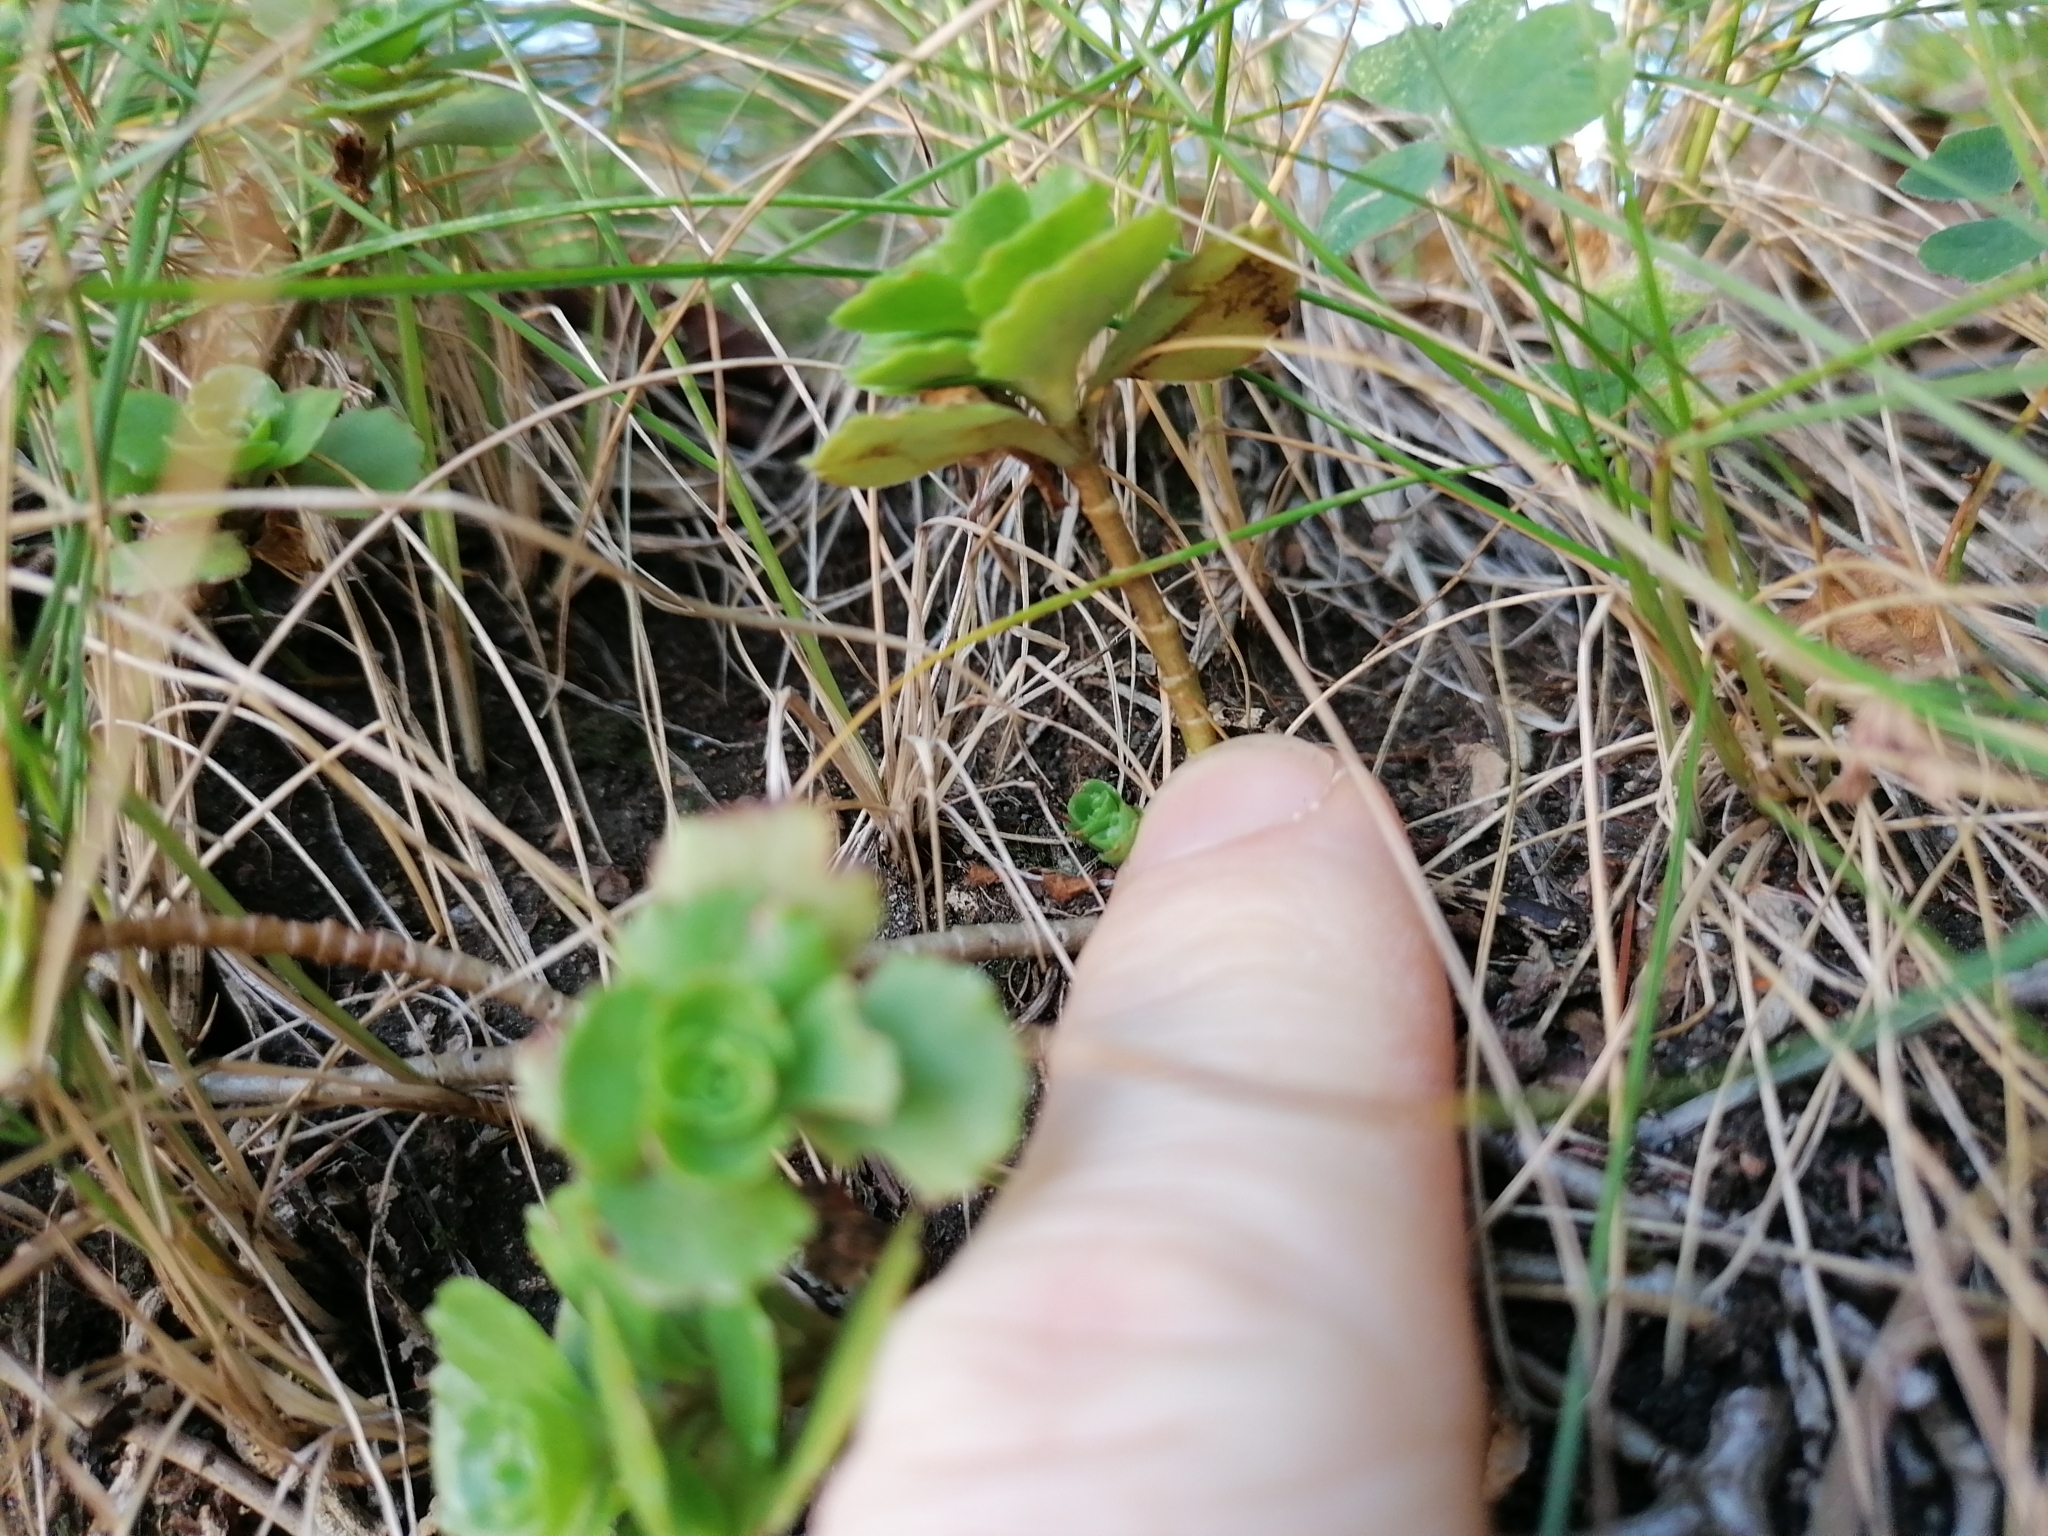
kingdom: Plantae
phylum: Tracheophyta
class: Magnoliopsida
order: Saxifragales
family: Crassulaceae
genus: Phedimus
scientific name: Phedimus spurius
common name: Caucasian stonecrop
